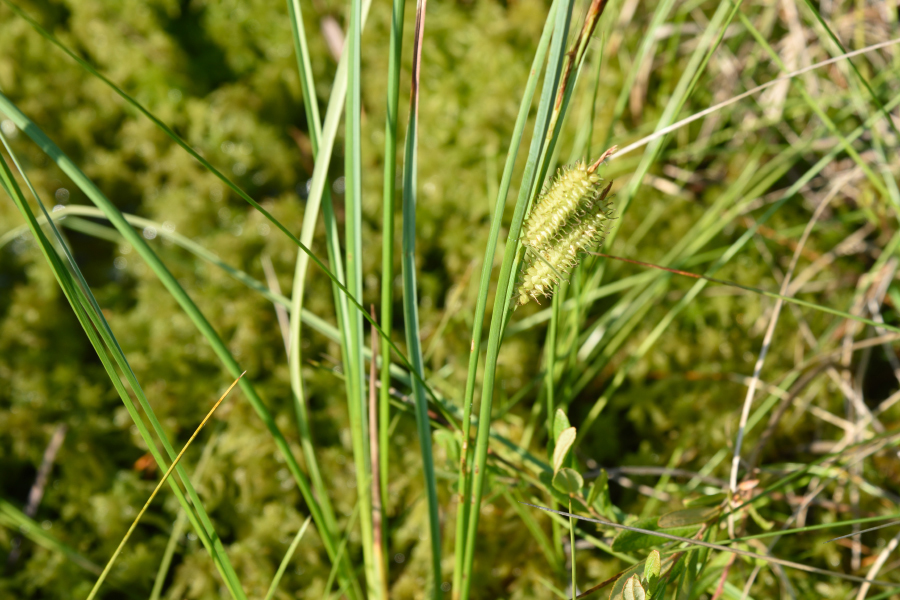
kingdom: Plantae
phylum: Tracheophyta
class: Liliopsida
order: Poales
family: Cyperaceae
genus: Carex
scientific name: Carex rostrata
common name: Bottle sedge
